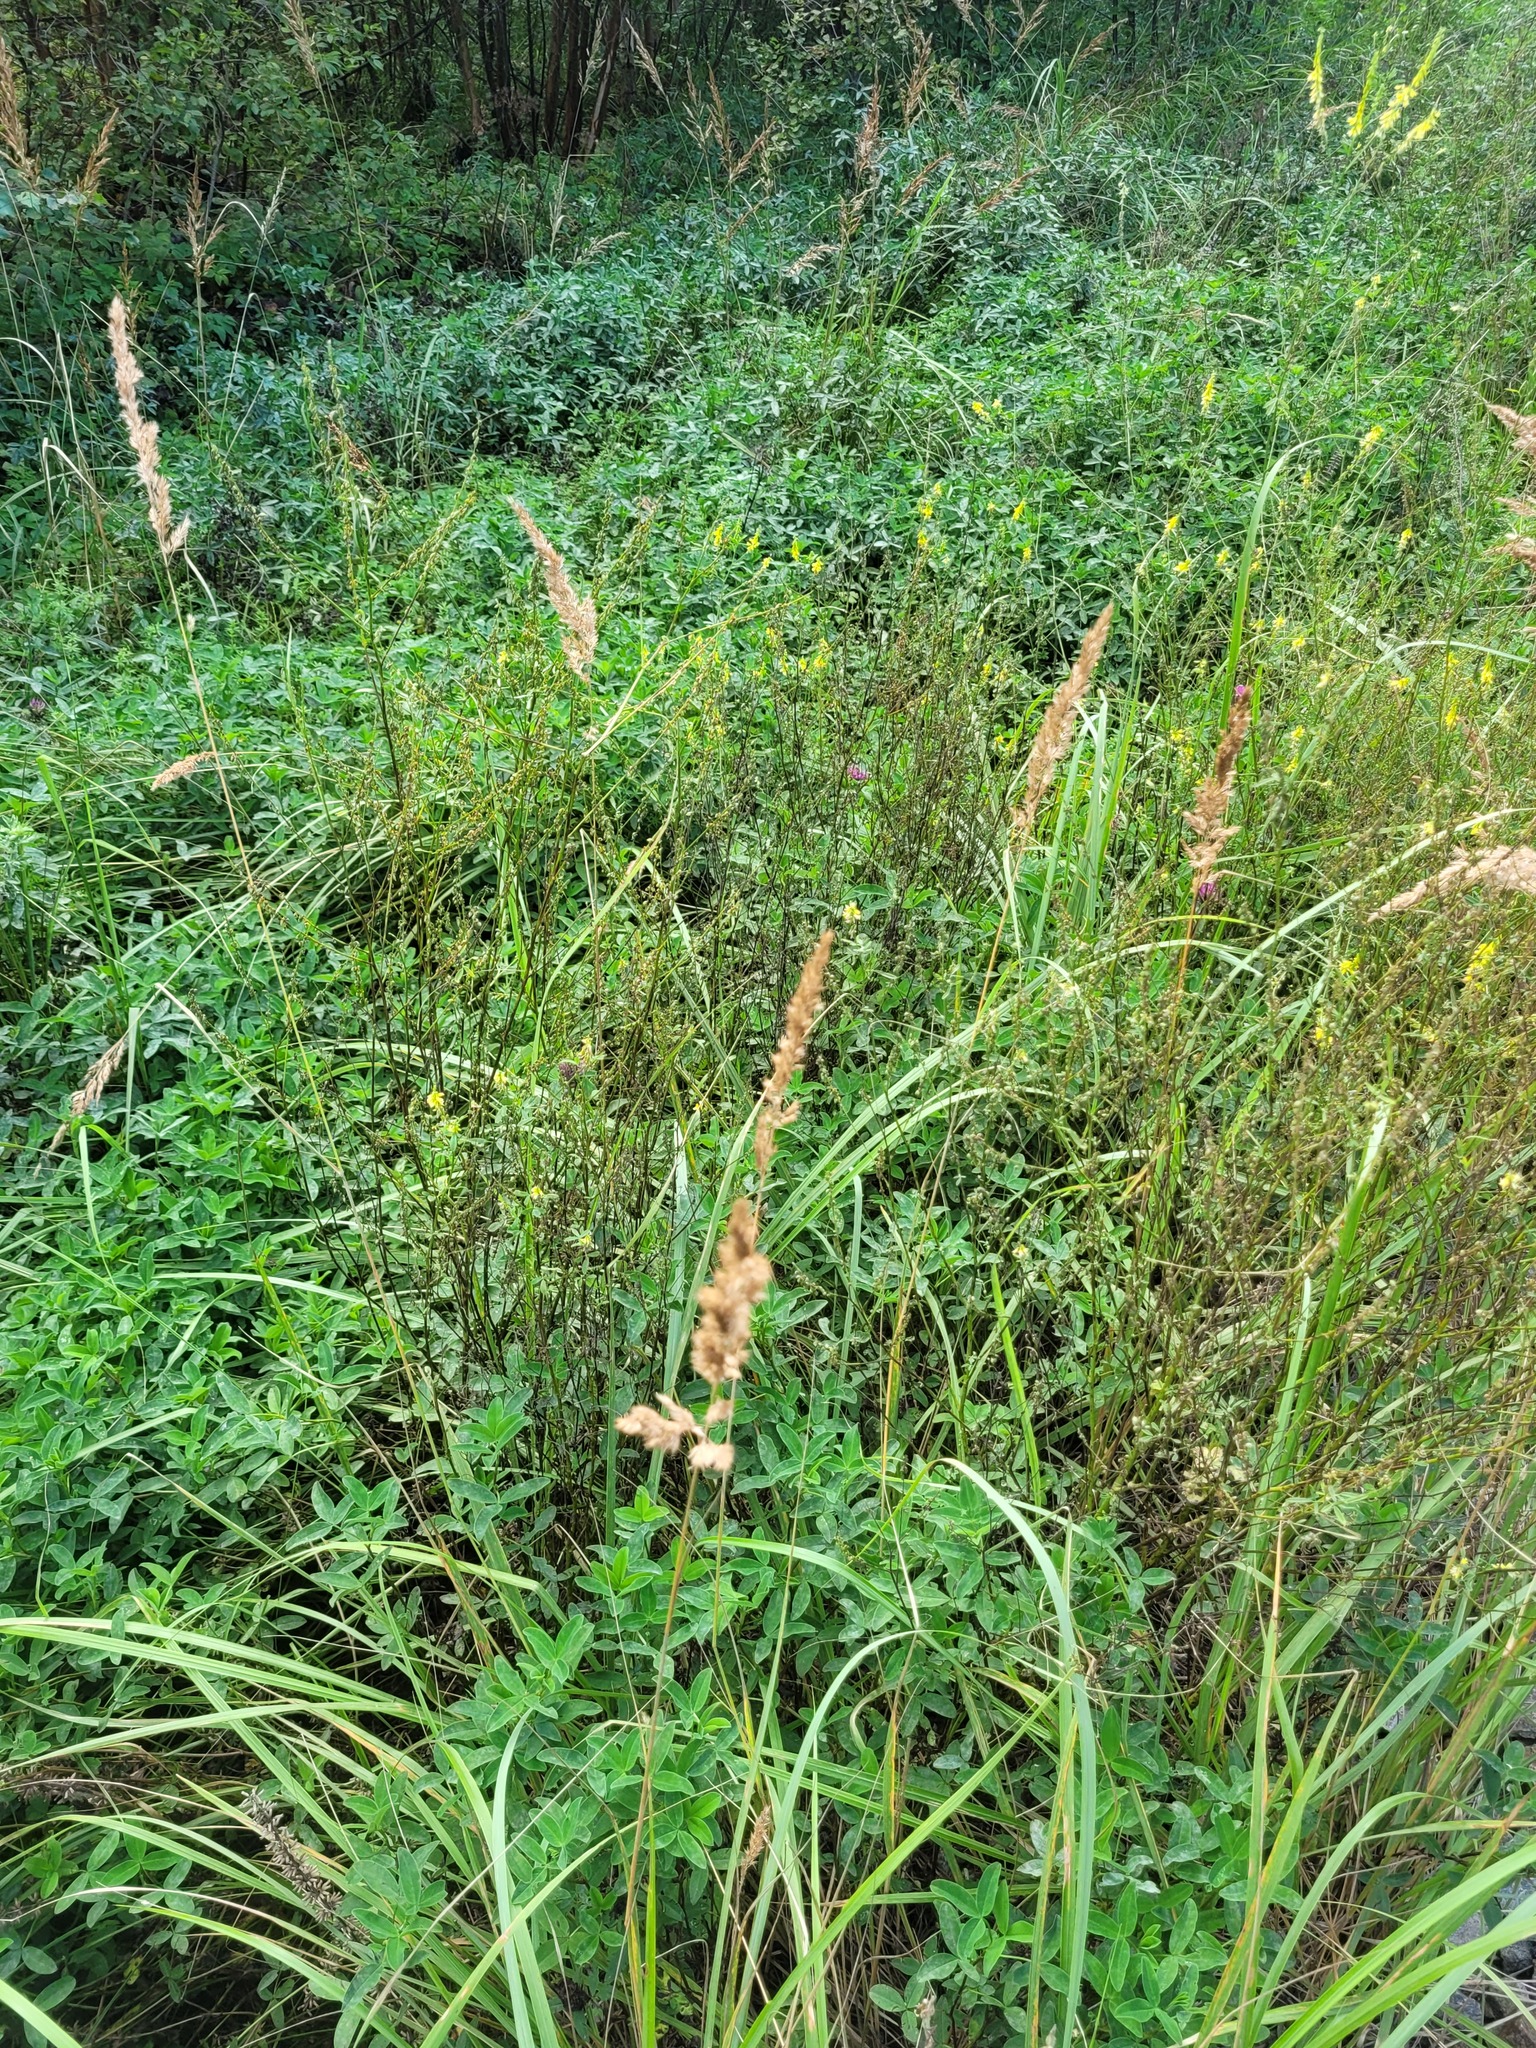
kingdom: Plantae
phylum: Tracheophyta
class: Liliopsida
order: Poales
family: Poaceae
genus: Calamagrostis
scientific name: Calamagrostis epigejos
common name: Wood small-reed
